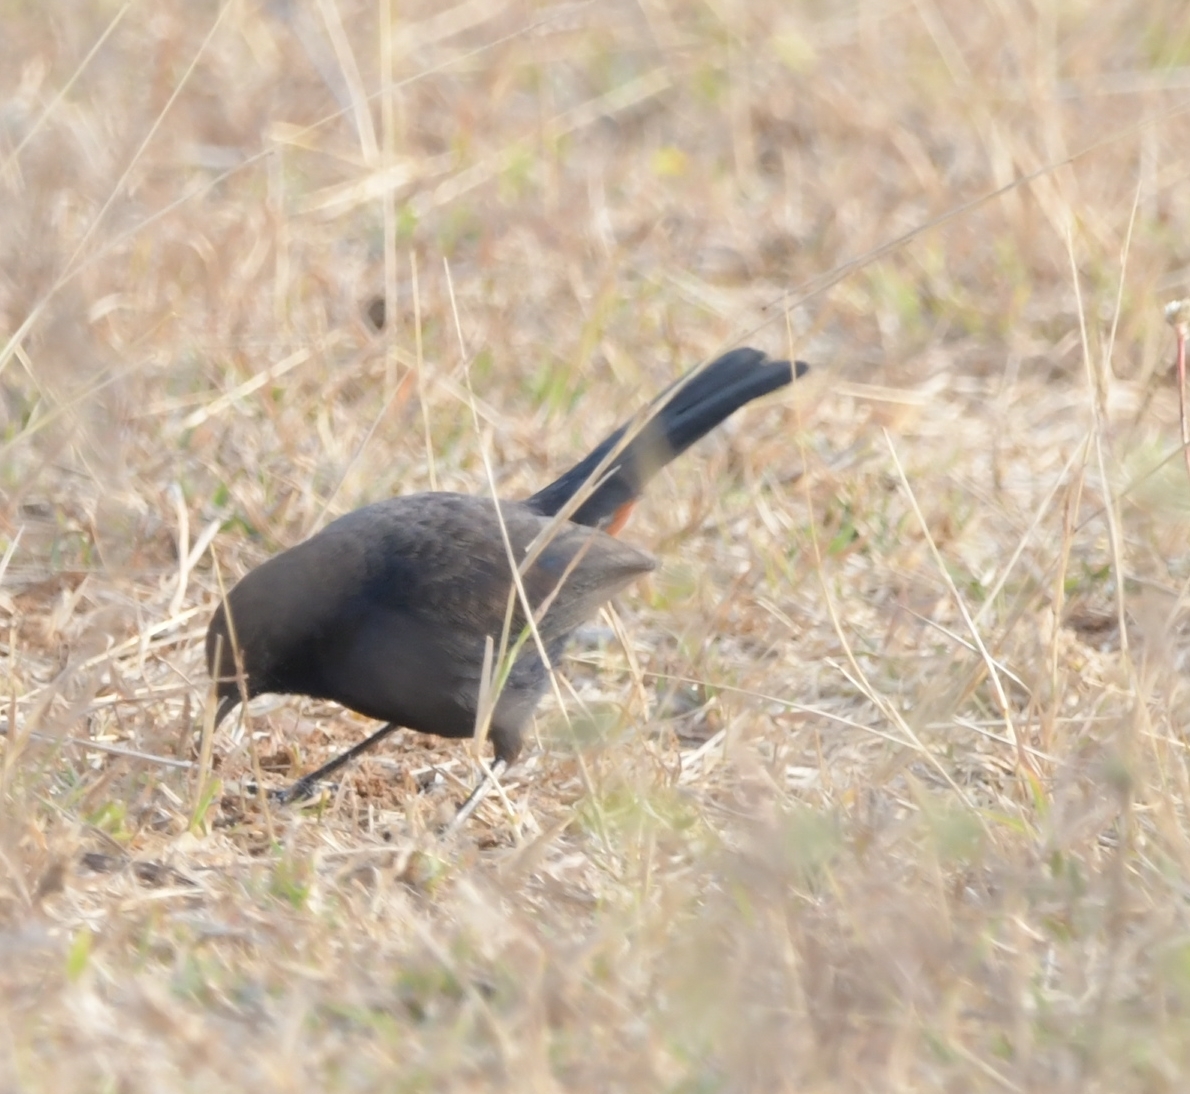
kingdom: Animalia
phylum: Chordata
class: Aves
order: Passeriformes
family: Muscicapidae
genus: Saxicoloides
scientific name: Saxicoloides fulicatus
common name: Indian robin
